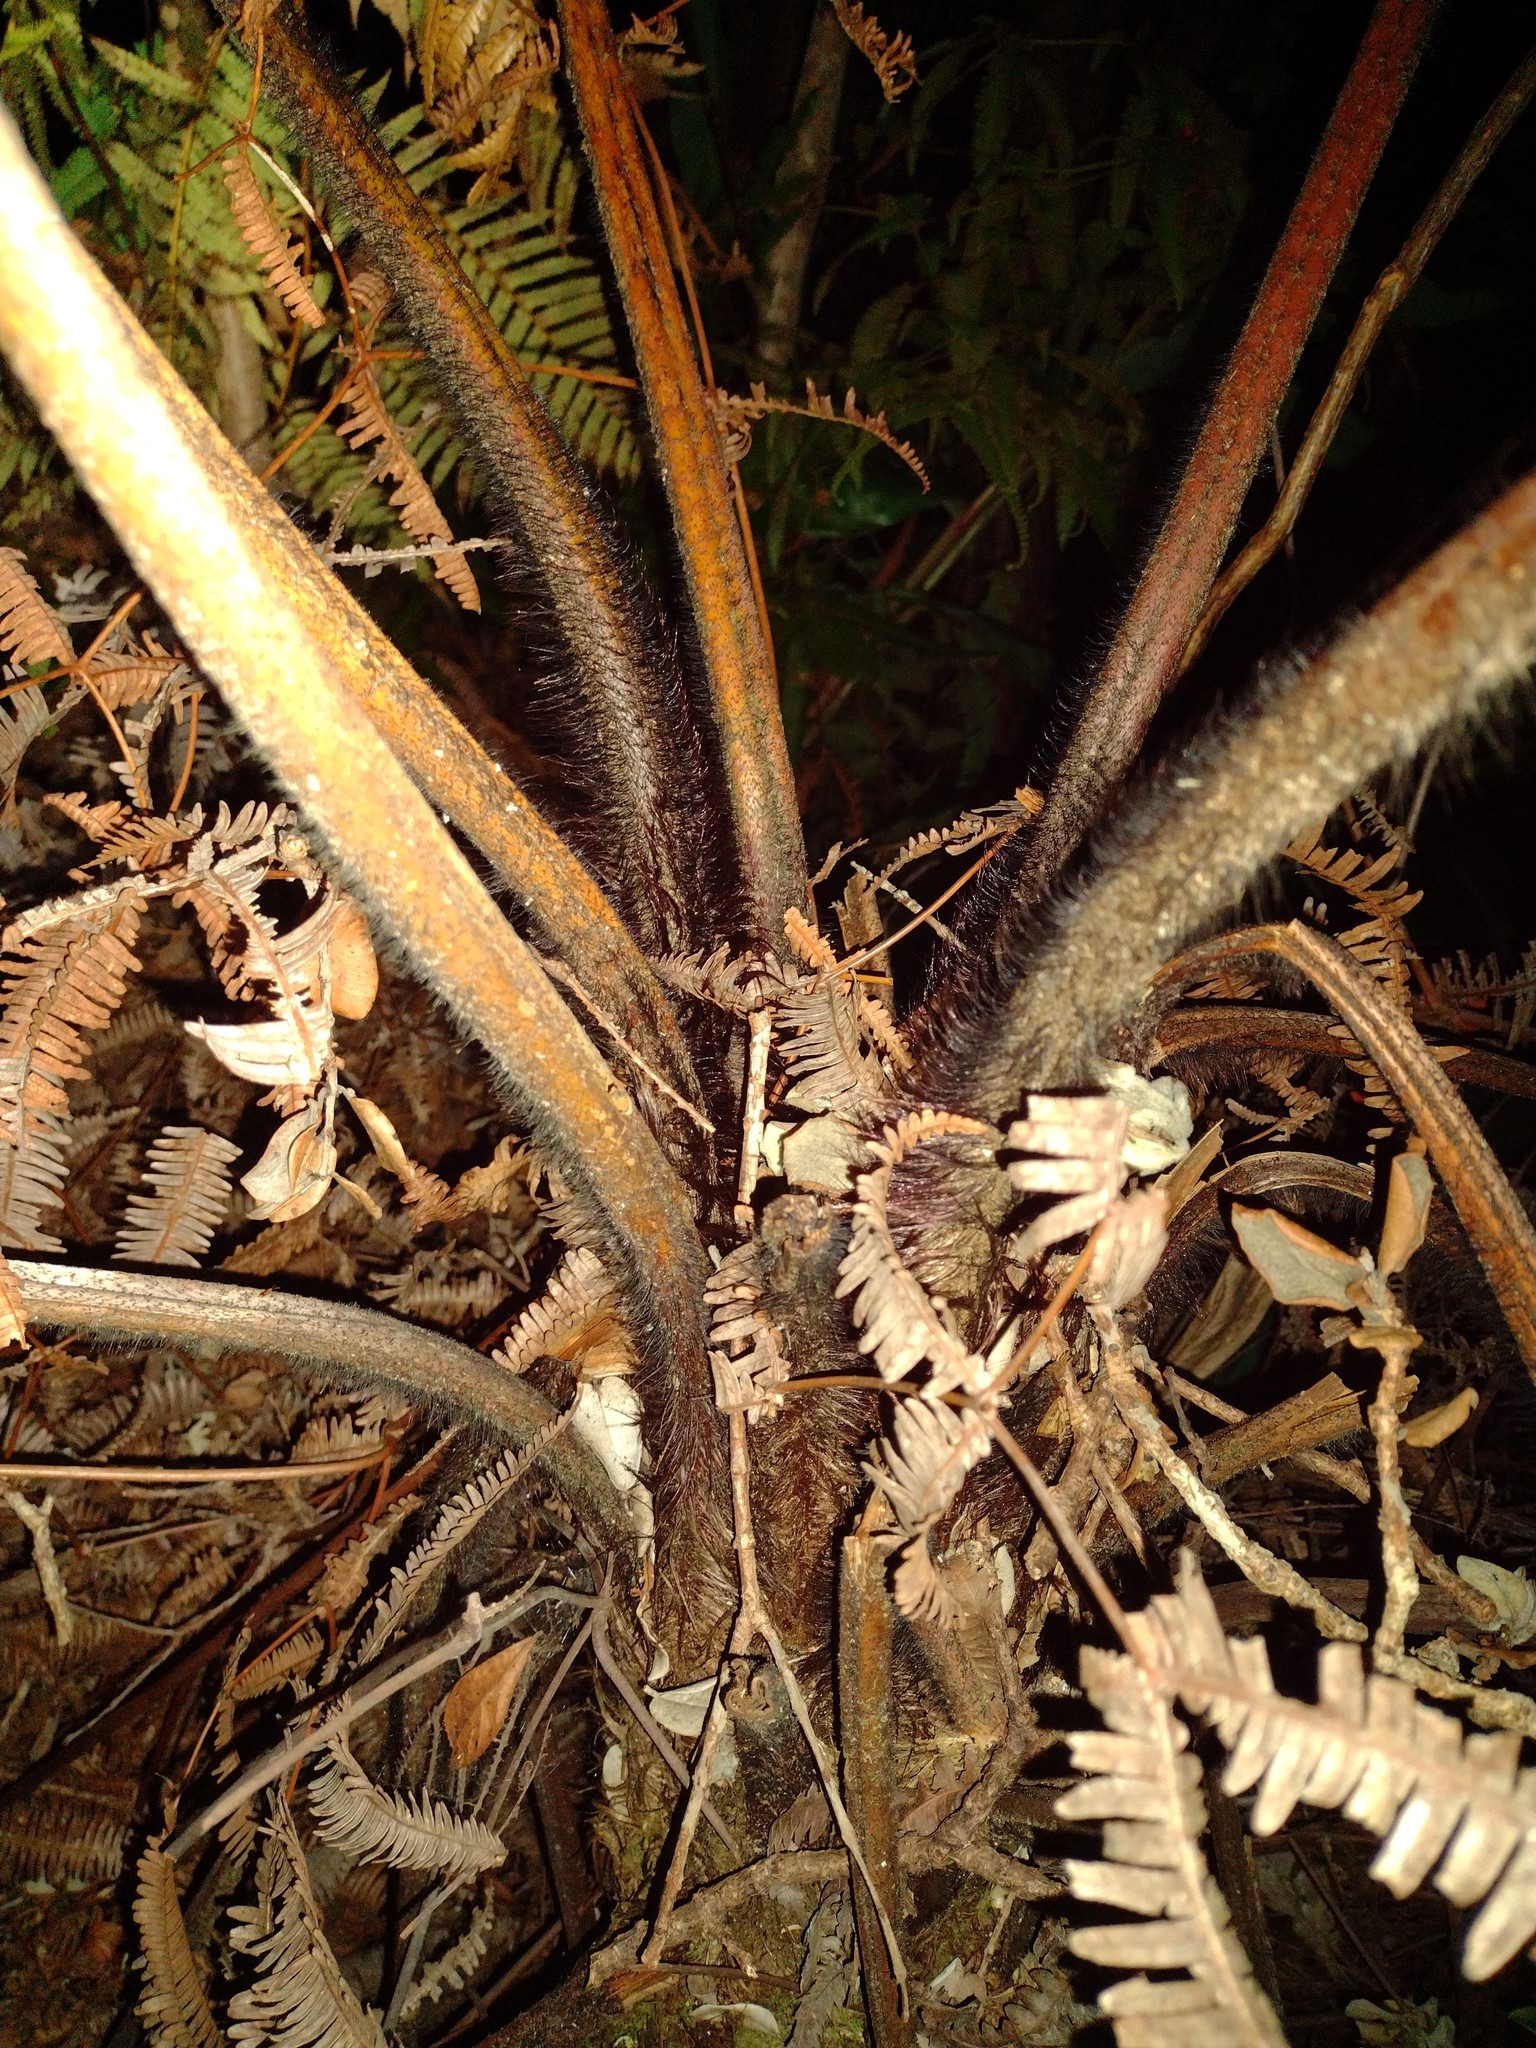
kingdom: Plantae
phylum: Tracheophyta
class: Polypodiopsida
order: Cyatheales
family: Cibotiaceae
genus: Cibotium
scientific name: Cibotium menziesii
